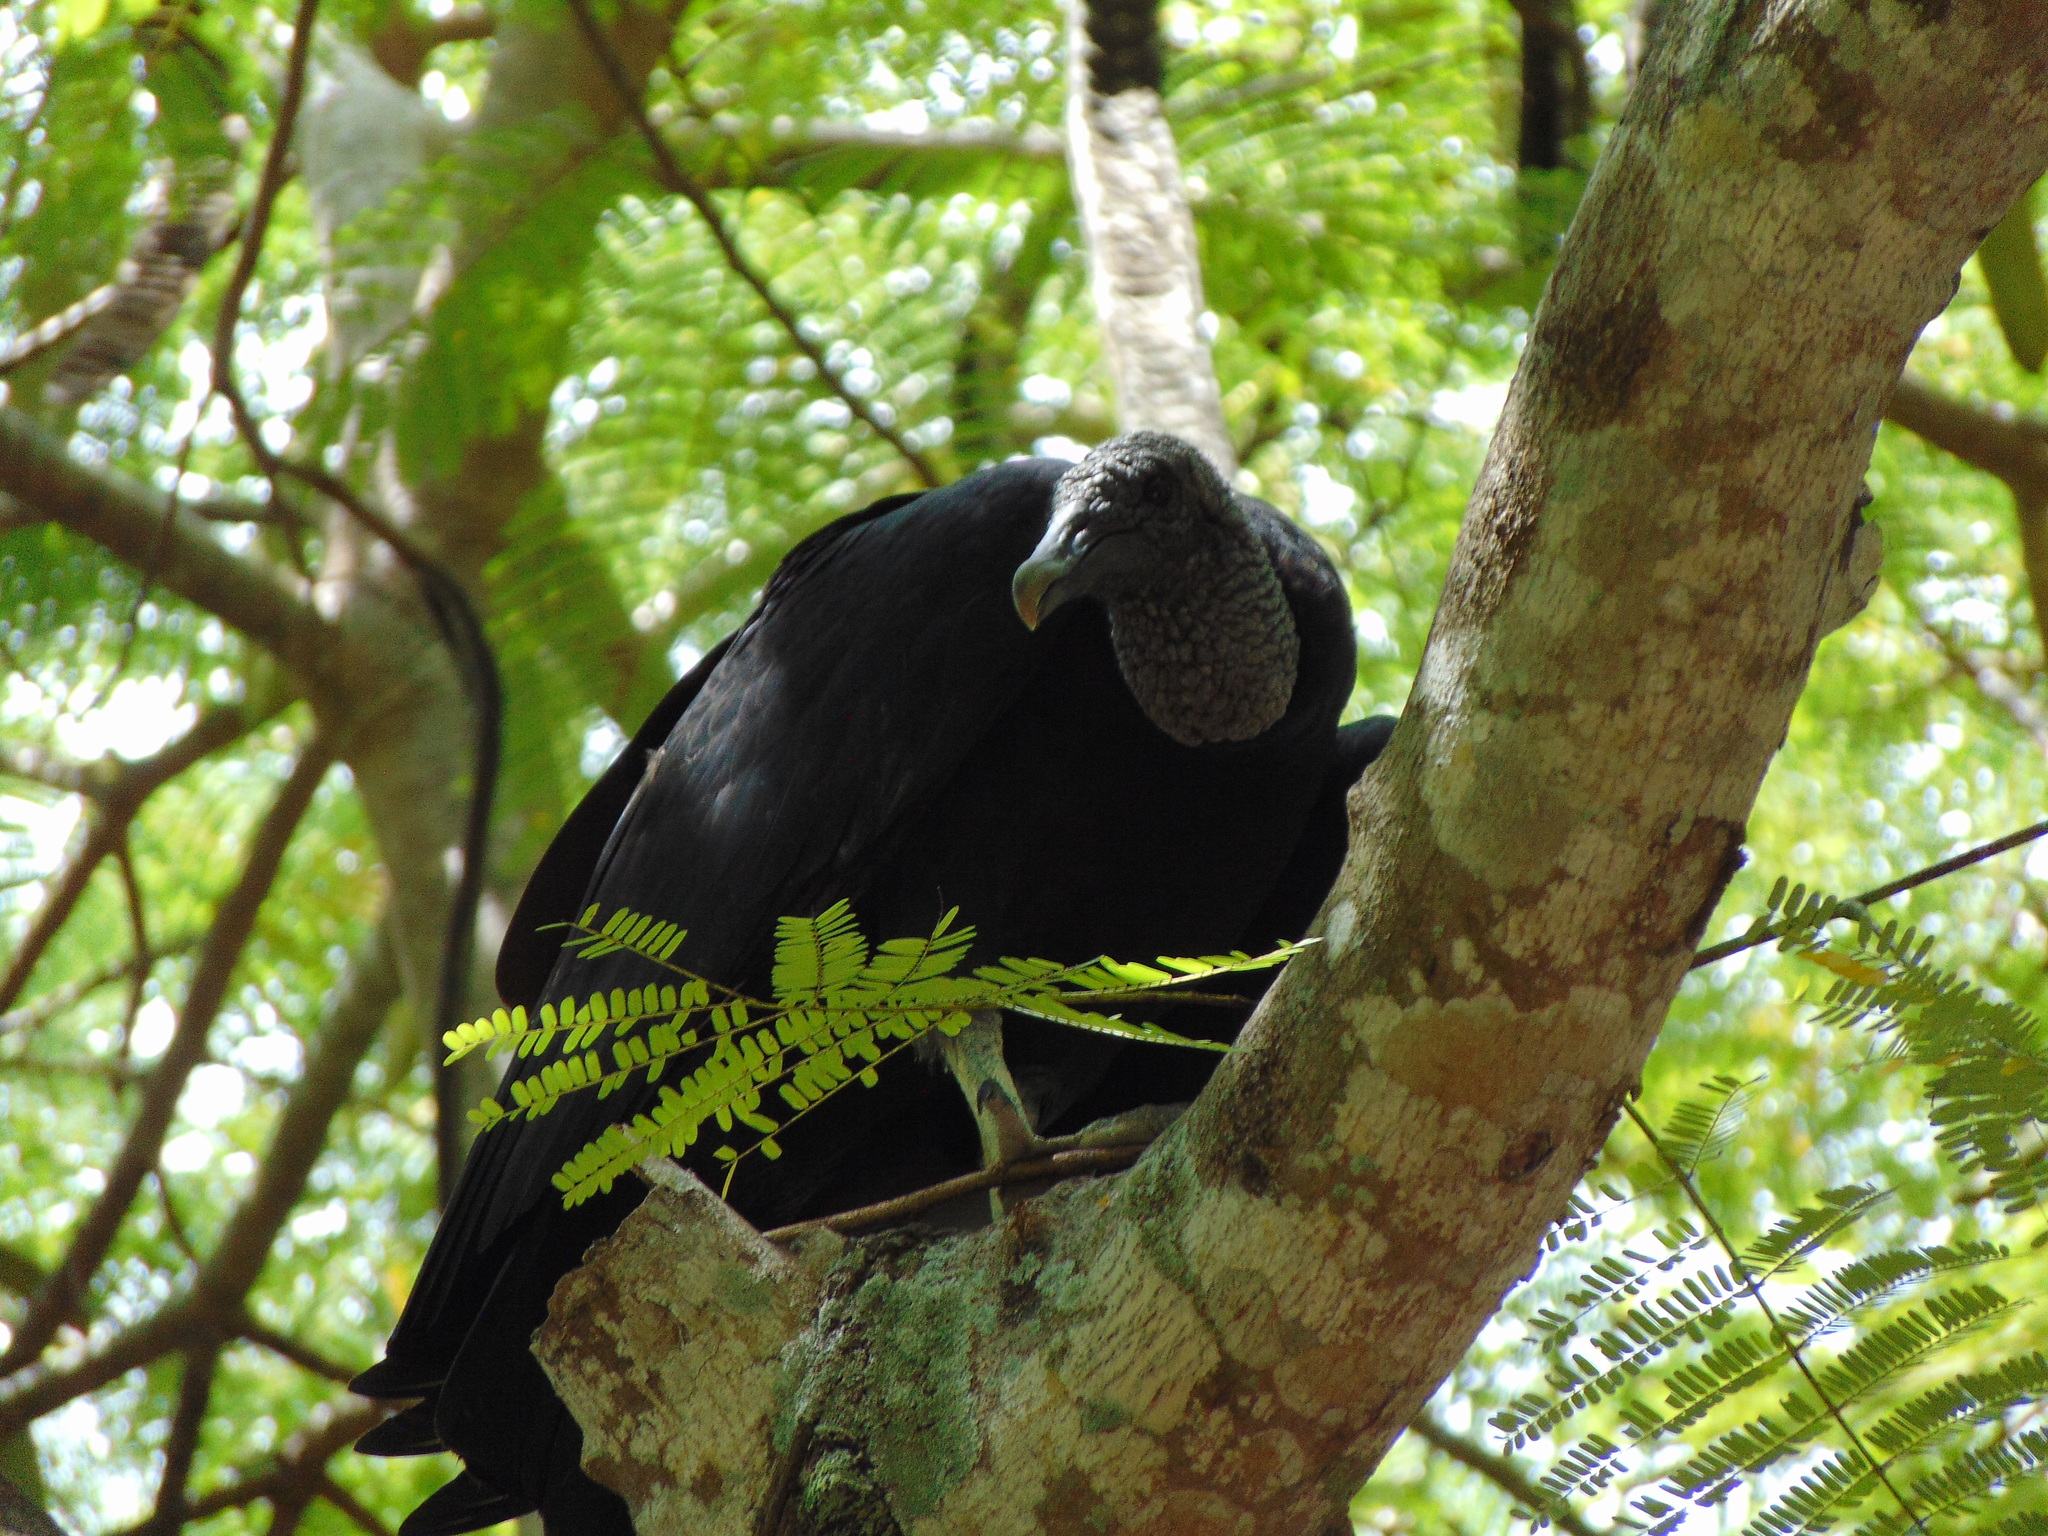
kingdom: Animalia
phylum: Chordata
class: Aves
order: Accipitriformes
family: Cathartidae
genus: Coragyps
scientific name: Coragyps atratus
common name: Black vulture
